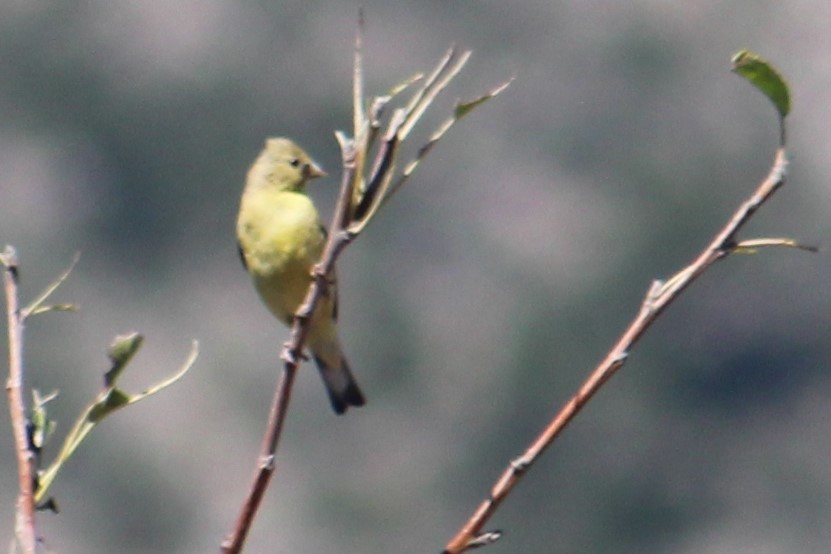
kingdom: Animalia
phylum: Chordata
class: Aves
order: Passeriformes
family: Fringillidae
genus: Spinus
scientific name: Spinus psaltria
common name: Lesser goldfinch
